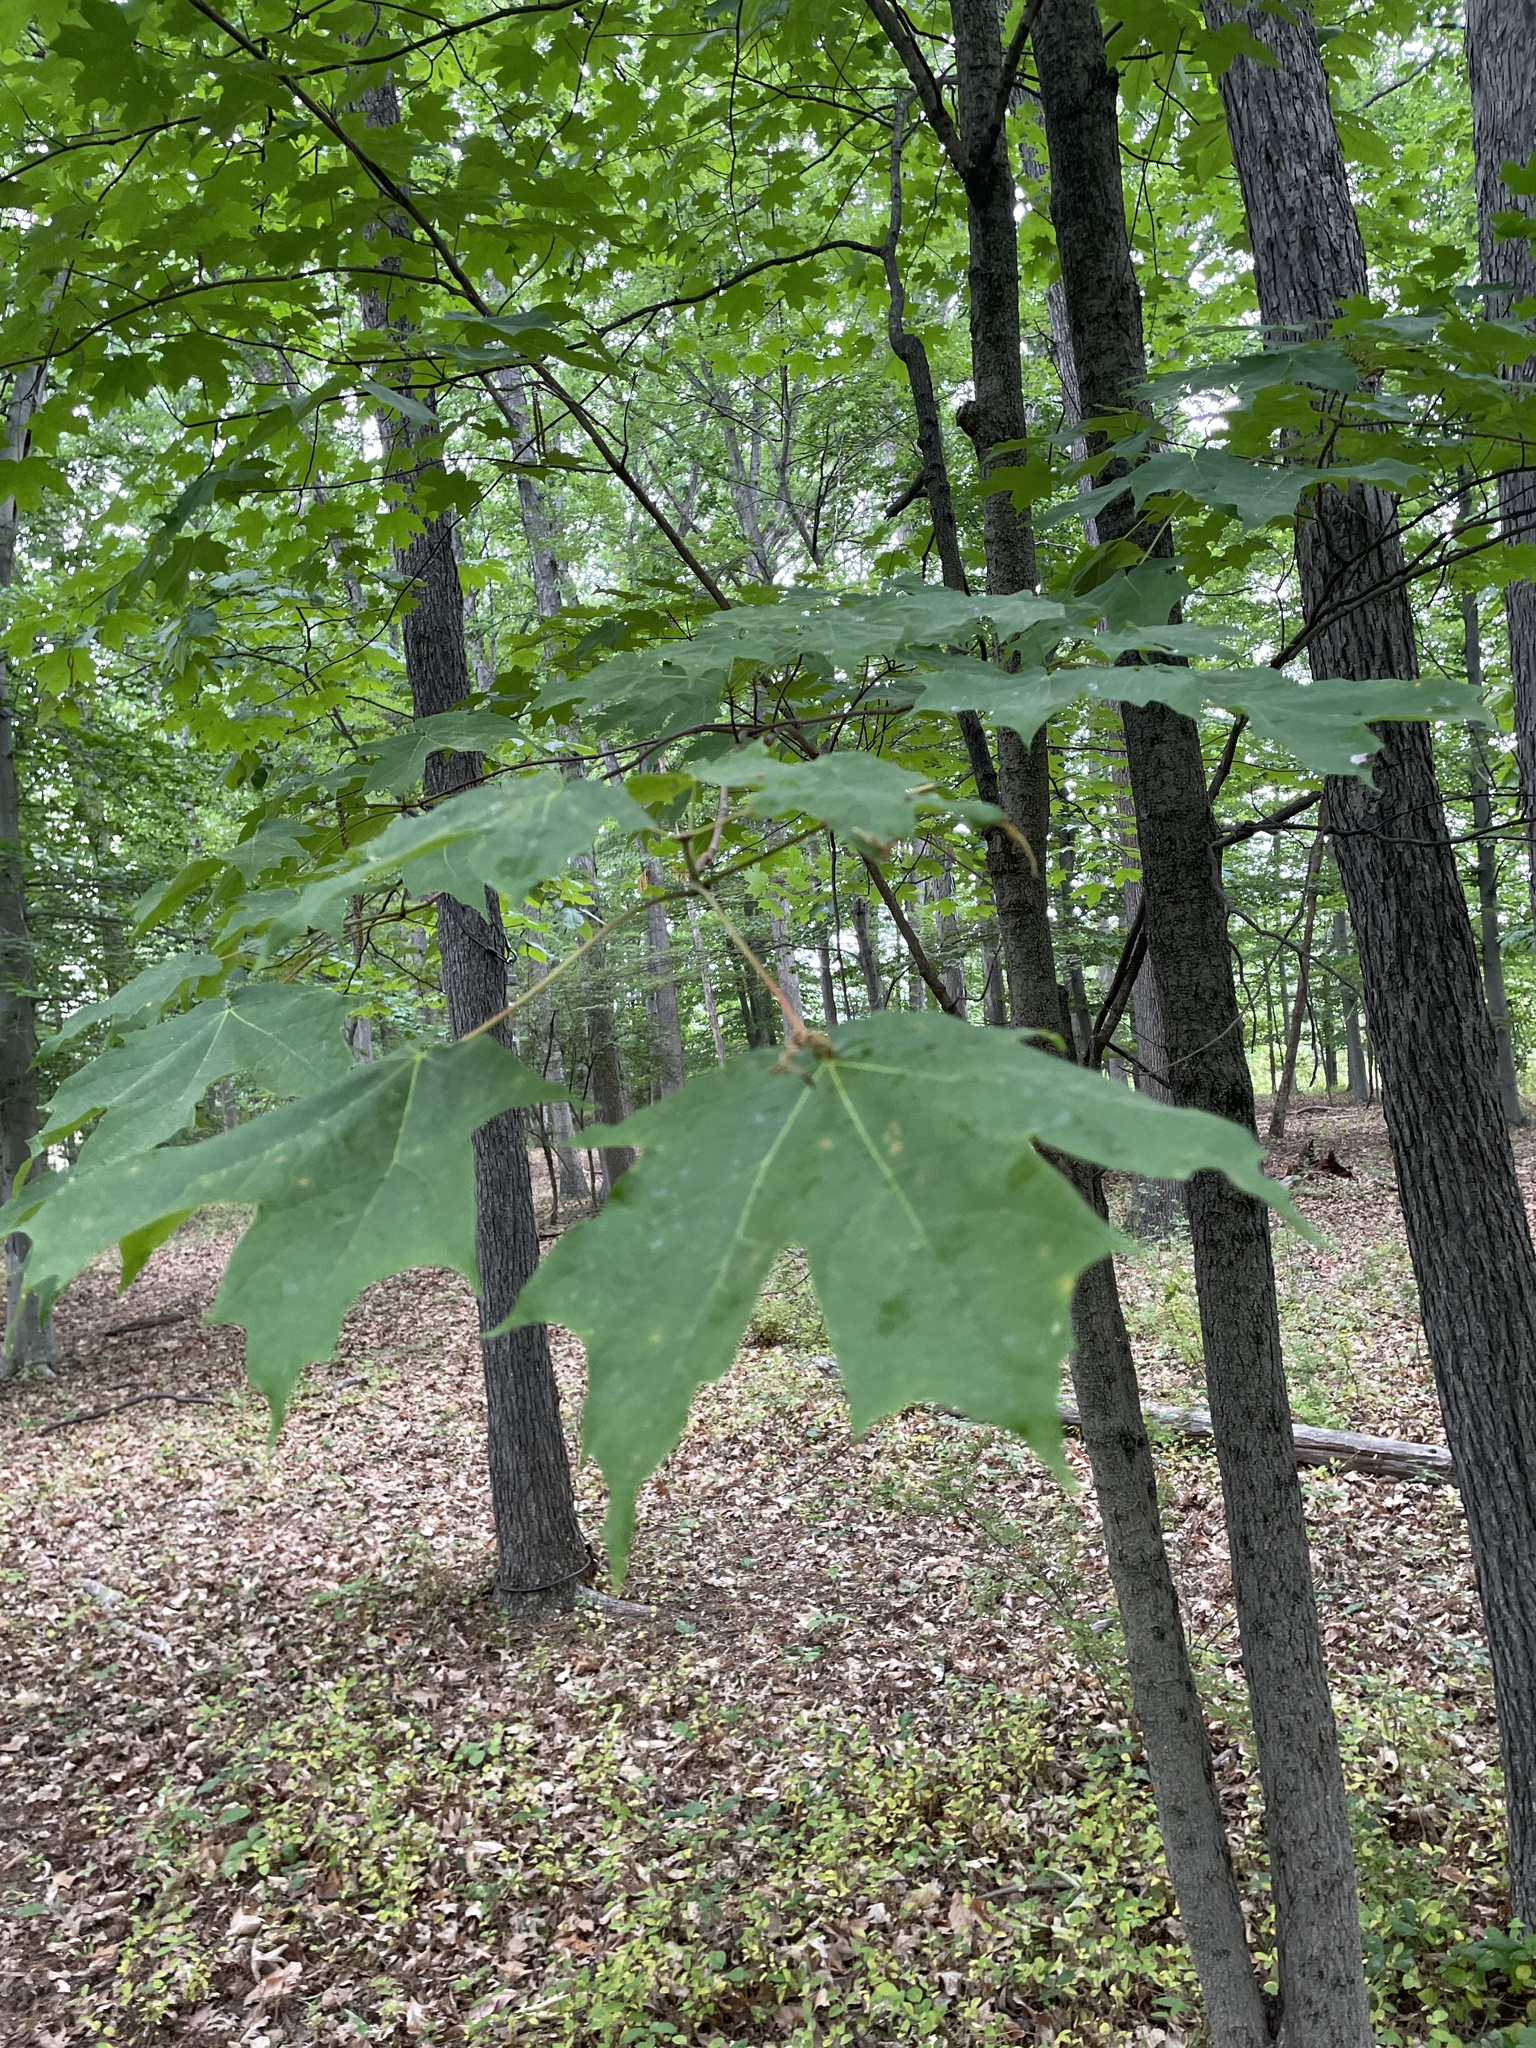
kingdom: Plantae
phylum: Tracheophyta
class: Magnoliopsida
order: Sapindales
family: Sapindaceae
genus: Acer
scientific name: Acer saccharum
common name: Sugar maple
